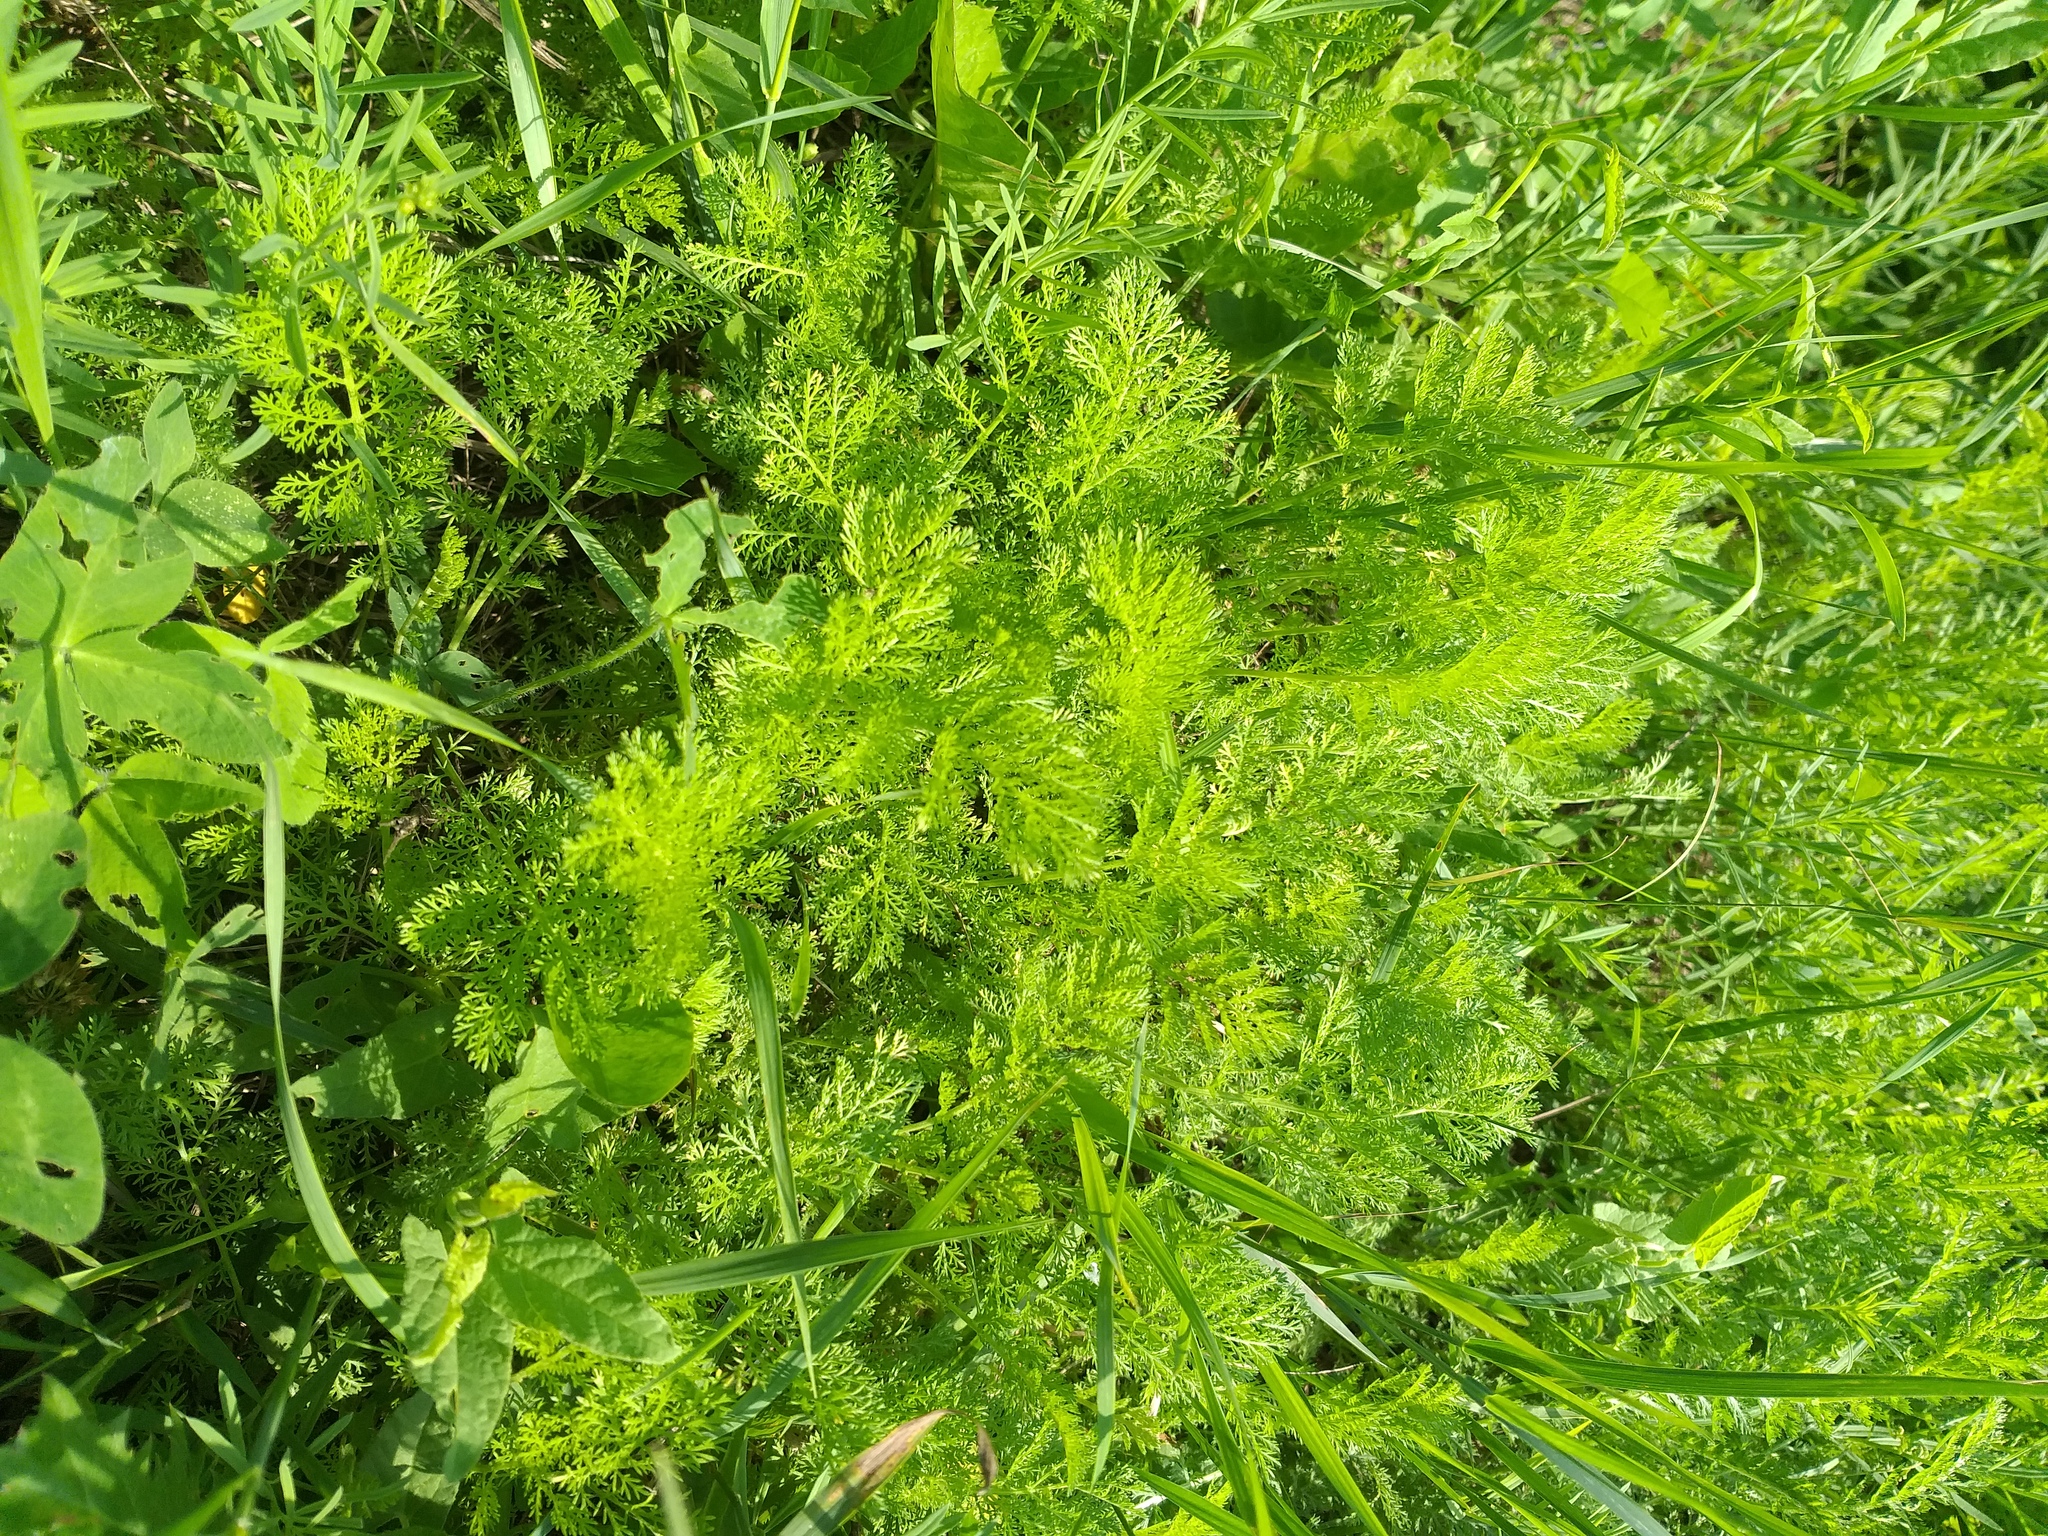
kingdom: Plantae
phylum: Tracheophyta
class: Magnoliopsida
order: Asterales
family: Asteraceae
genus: Achillea
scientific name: Achillea nobilis
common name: Noble yarrow
